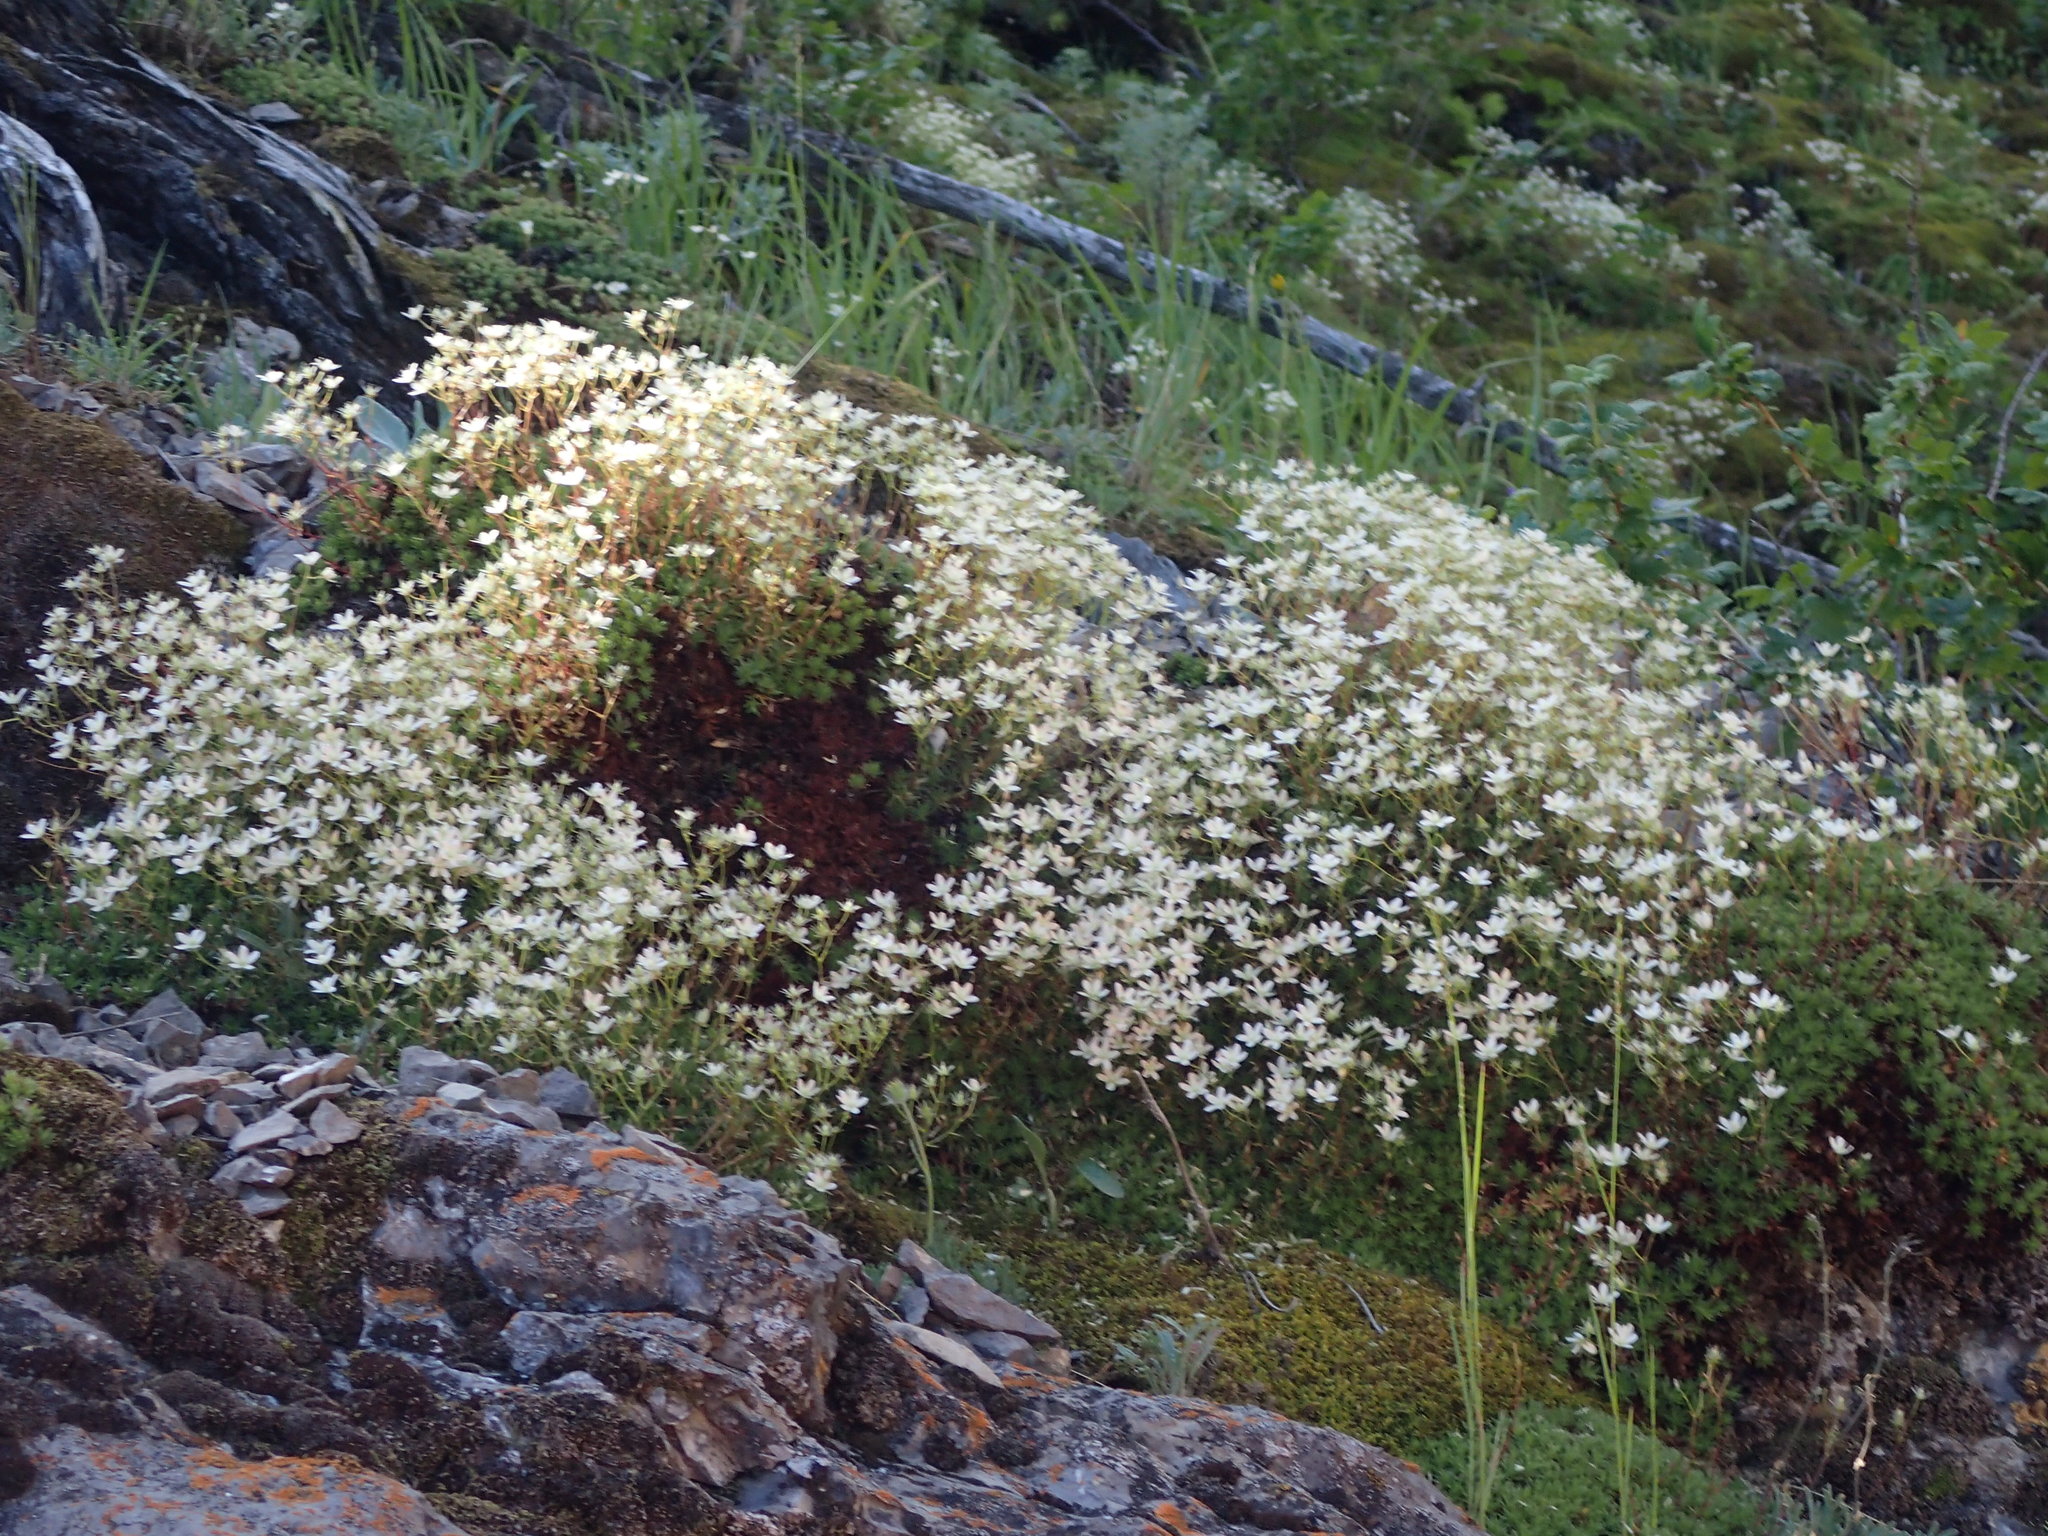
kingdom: Plantae
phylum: Tracheophyta
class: Magnoliopsida
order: Ericales
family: Polemoniaceae
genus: Polemonium
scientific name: Polemonium pulcherrimum
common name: Short jacob's-ladder
